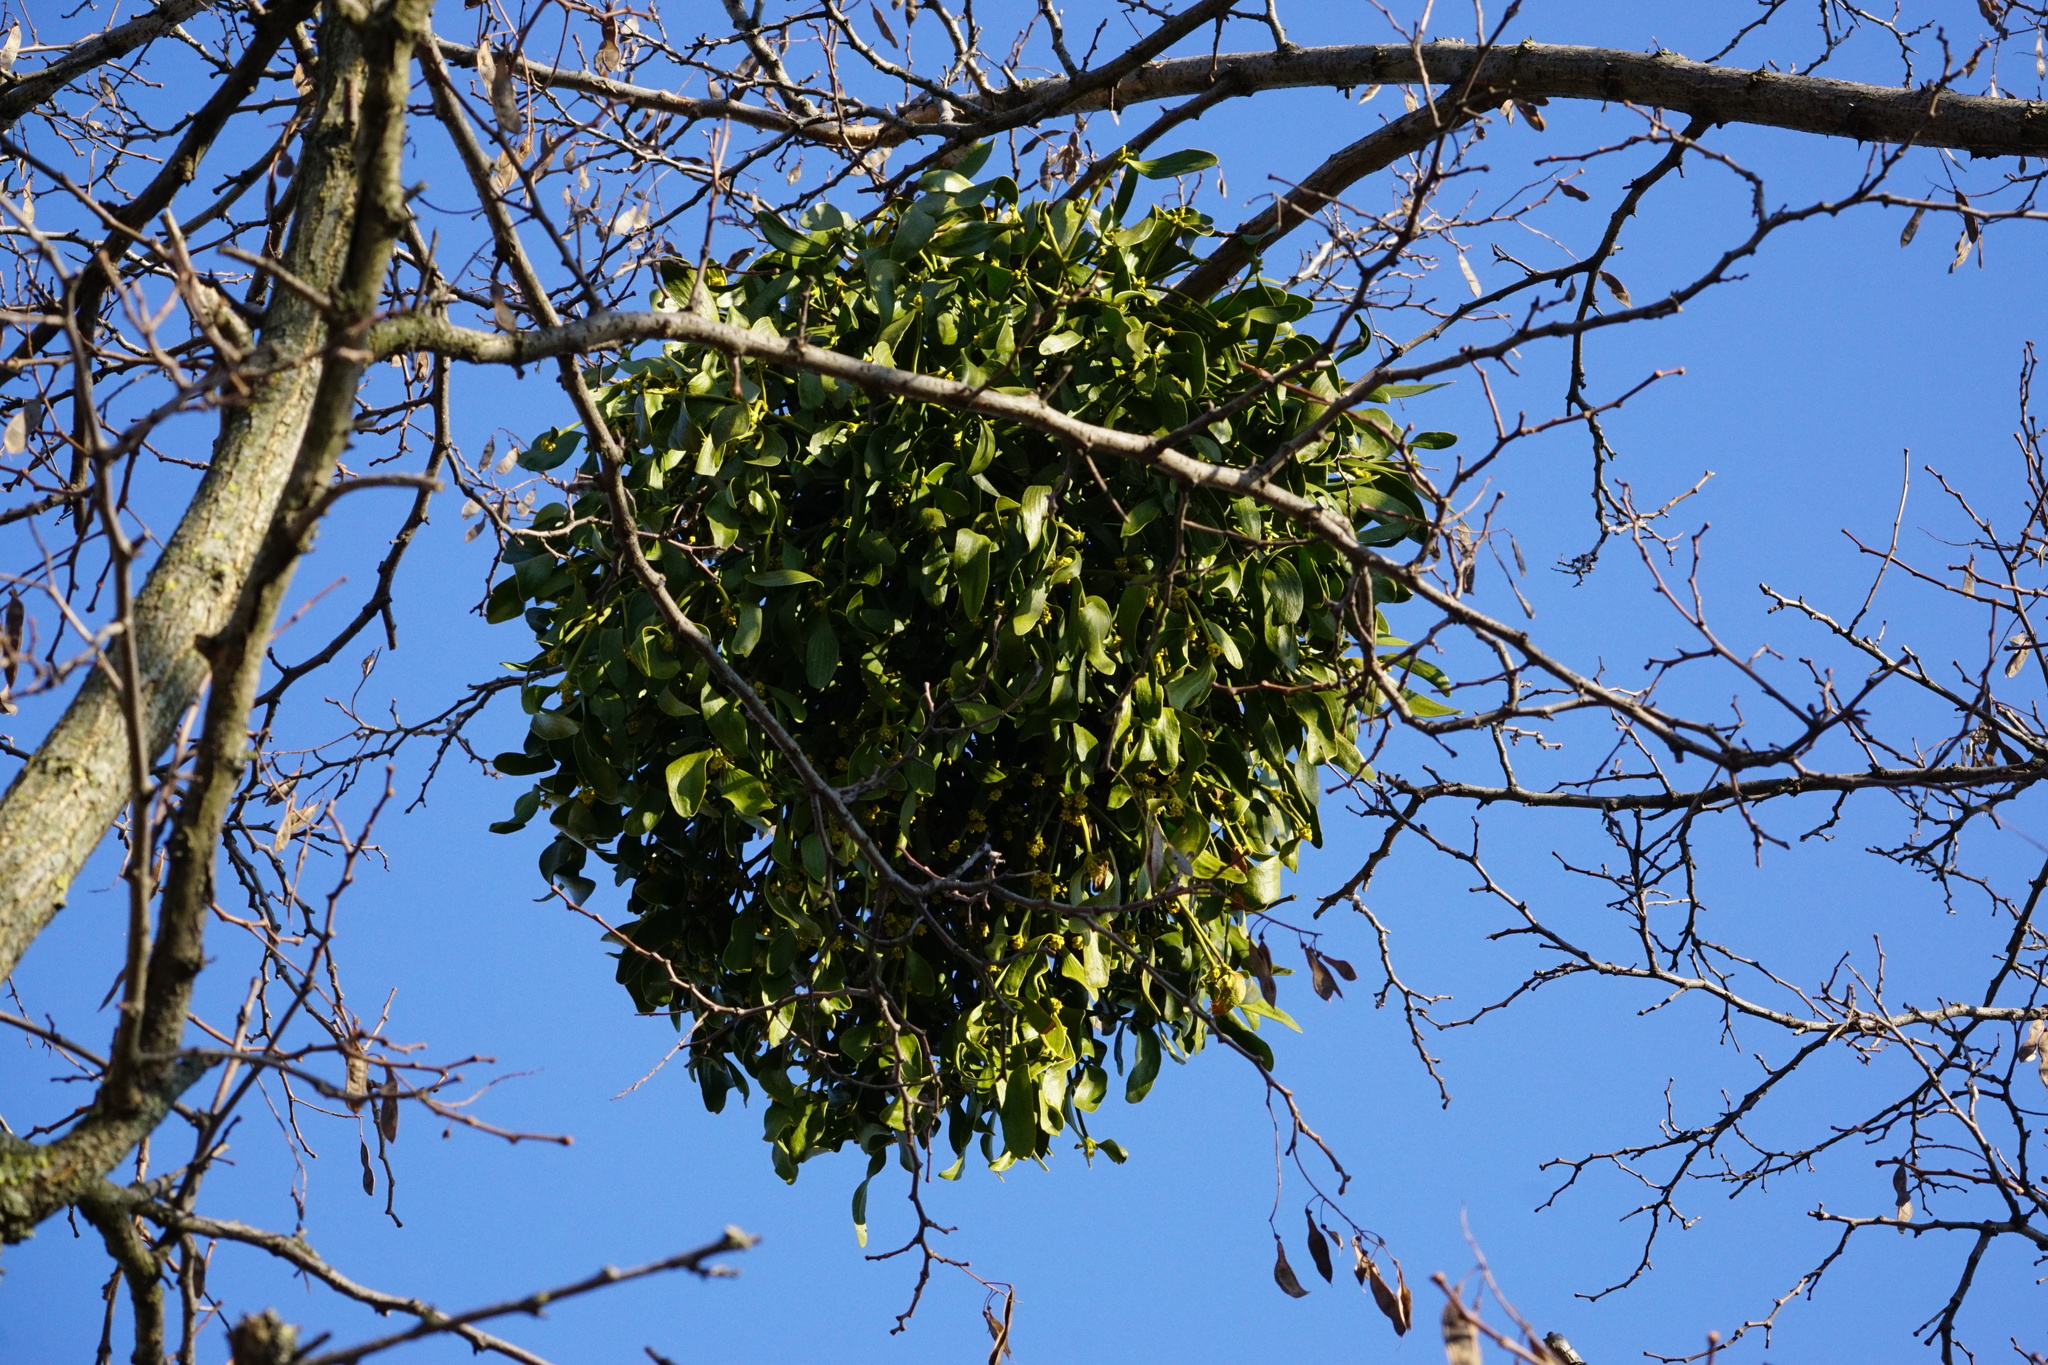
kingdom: Plantae
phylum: Tracheophyta
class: Magnoliopsida
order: Santalales
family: Viscaceae
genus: Viscum
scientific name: Viscum album
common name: Mistletoe
